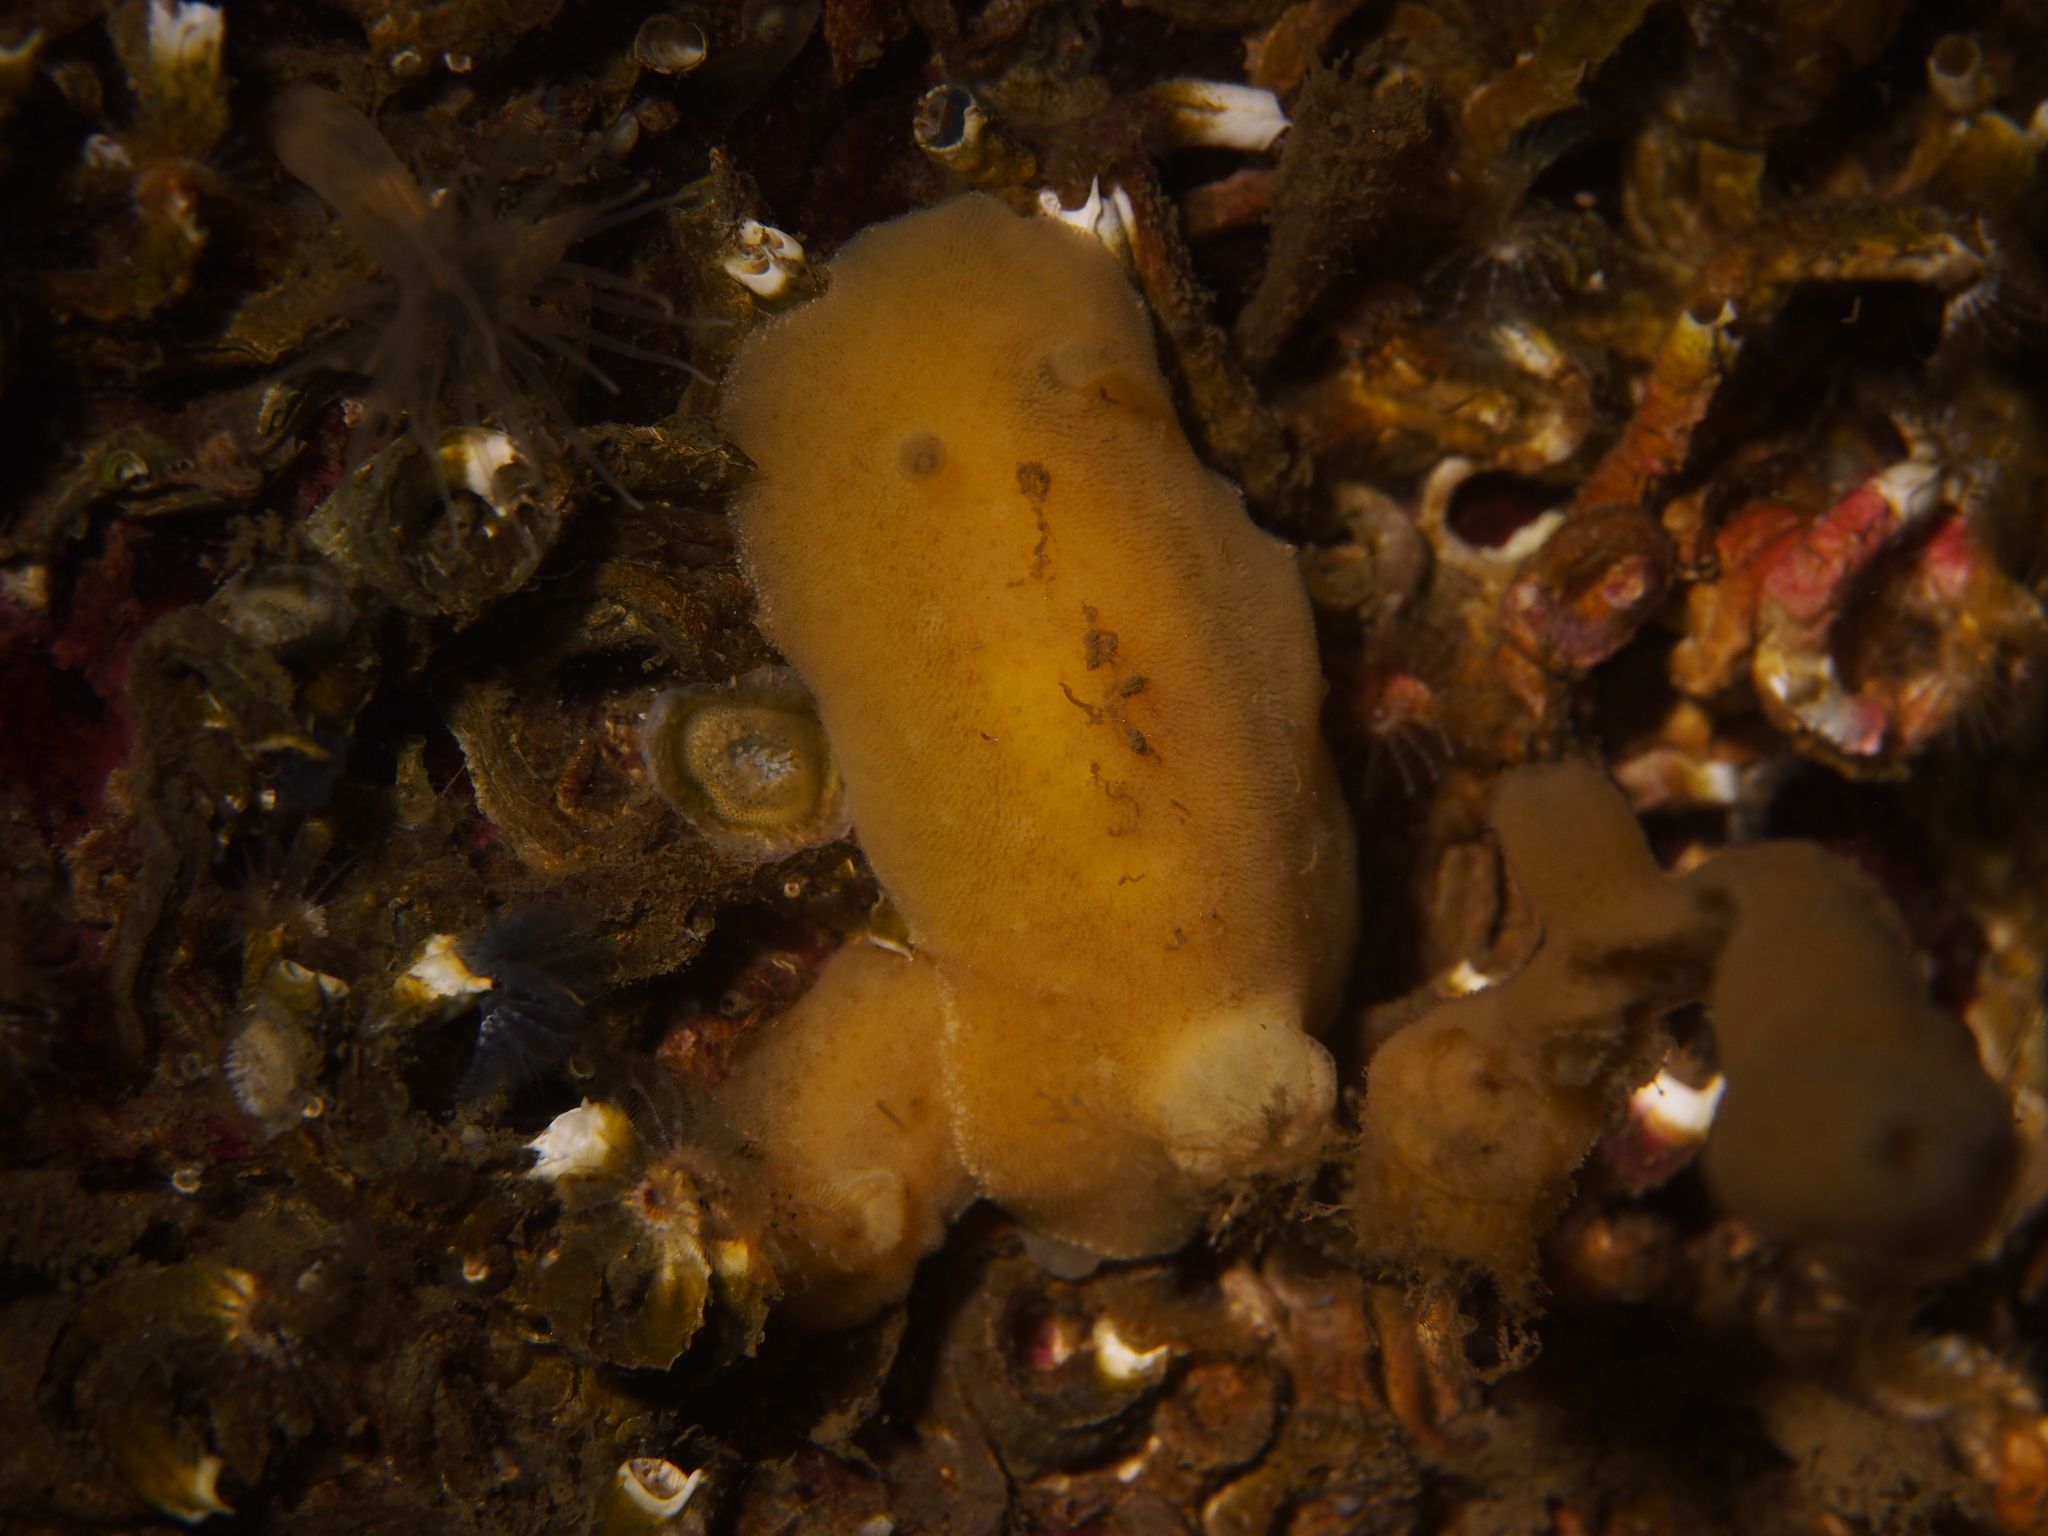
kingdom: Animalia
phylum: Mollusca
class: Gastropoda
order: Nudibranchia
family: Discodorididae
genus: Jorunna
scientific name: Jorunna tomentosa
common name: Grey sea slug
